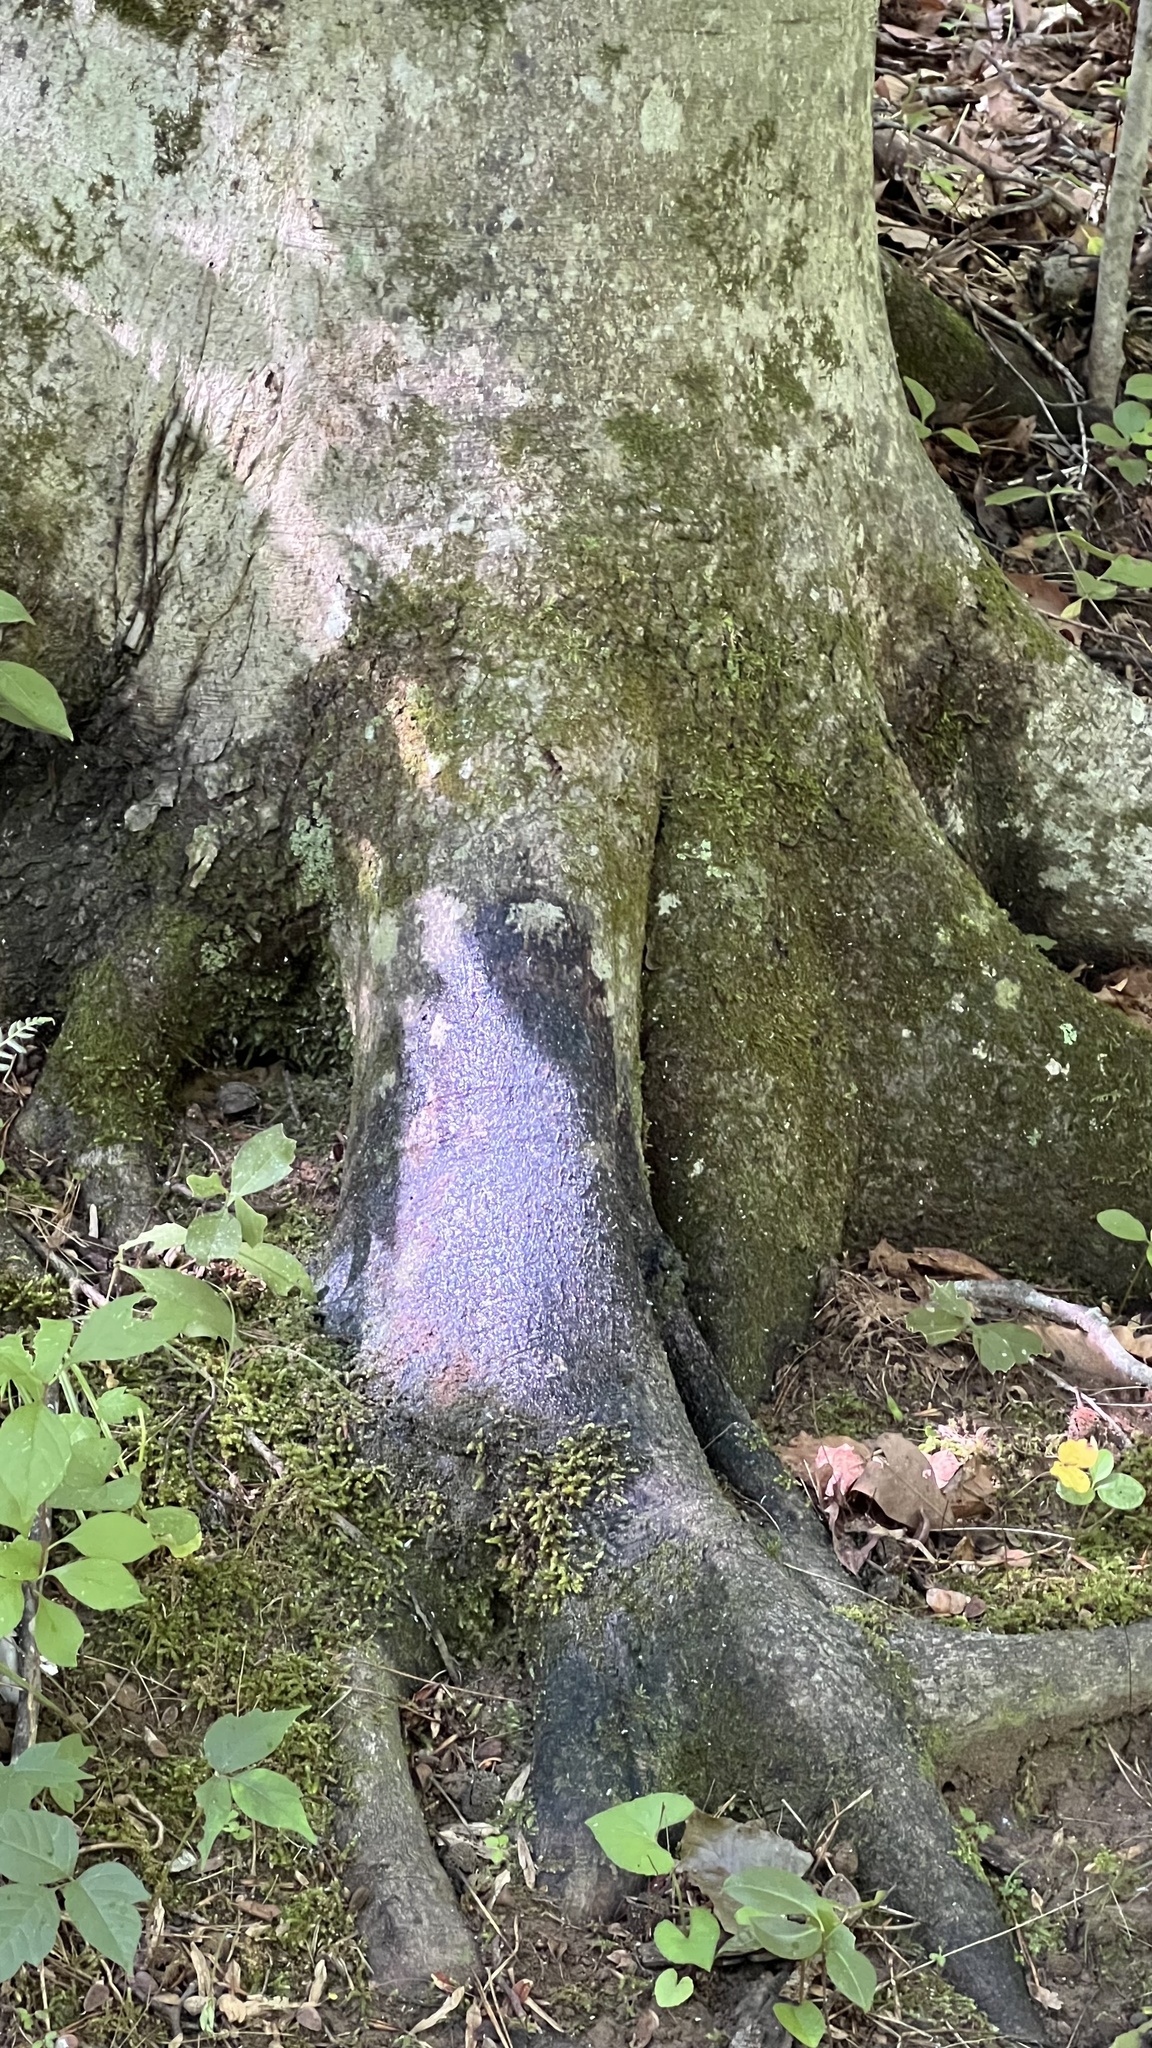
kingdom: Animalia
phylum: Arthropoda
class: Insecta
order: Hemiptera
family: Aphididae
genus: Grylloprociphilus
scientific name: Grylloprociphilus imbricator
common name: Beech blight aphid
